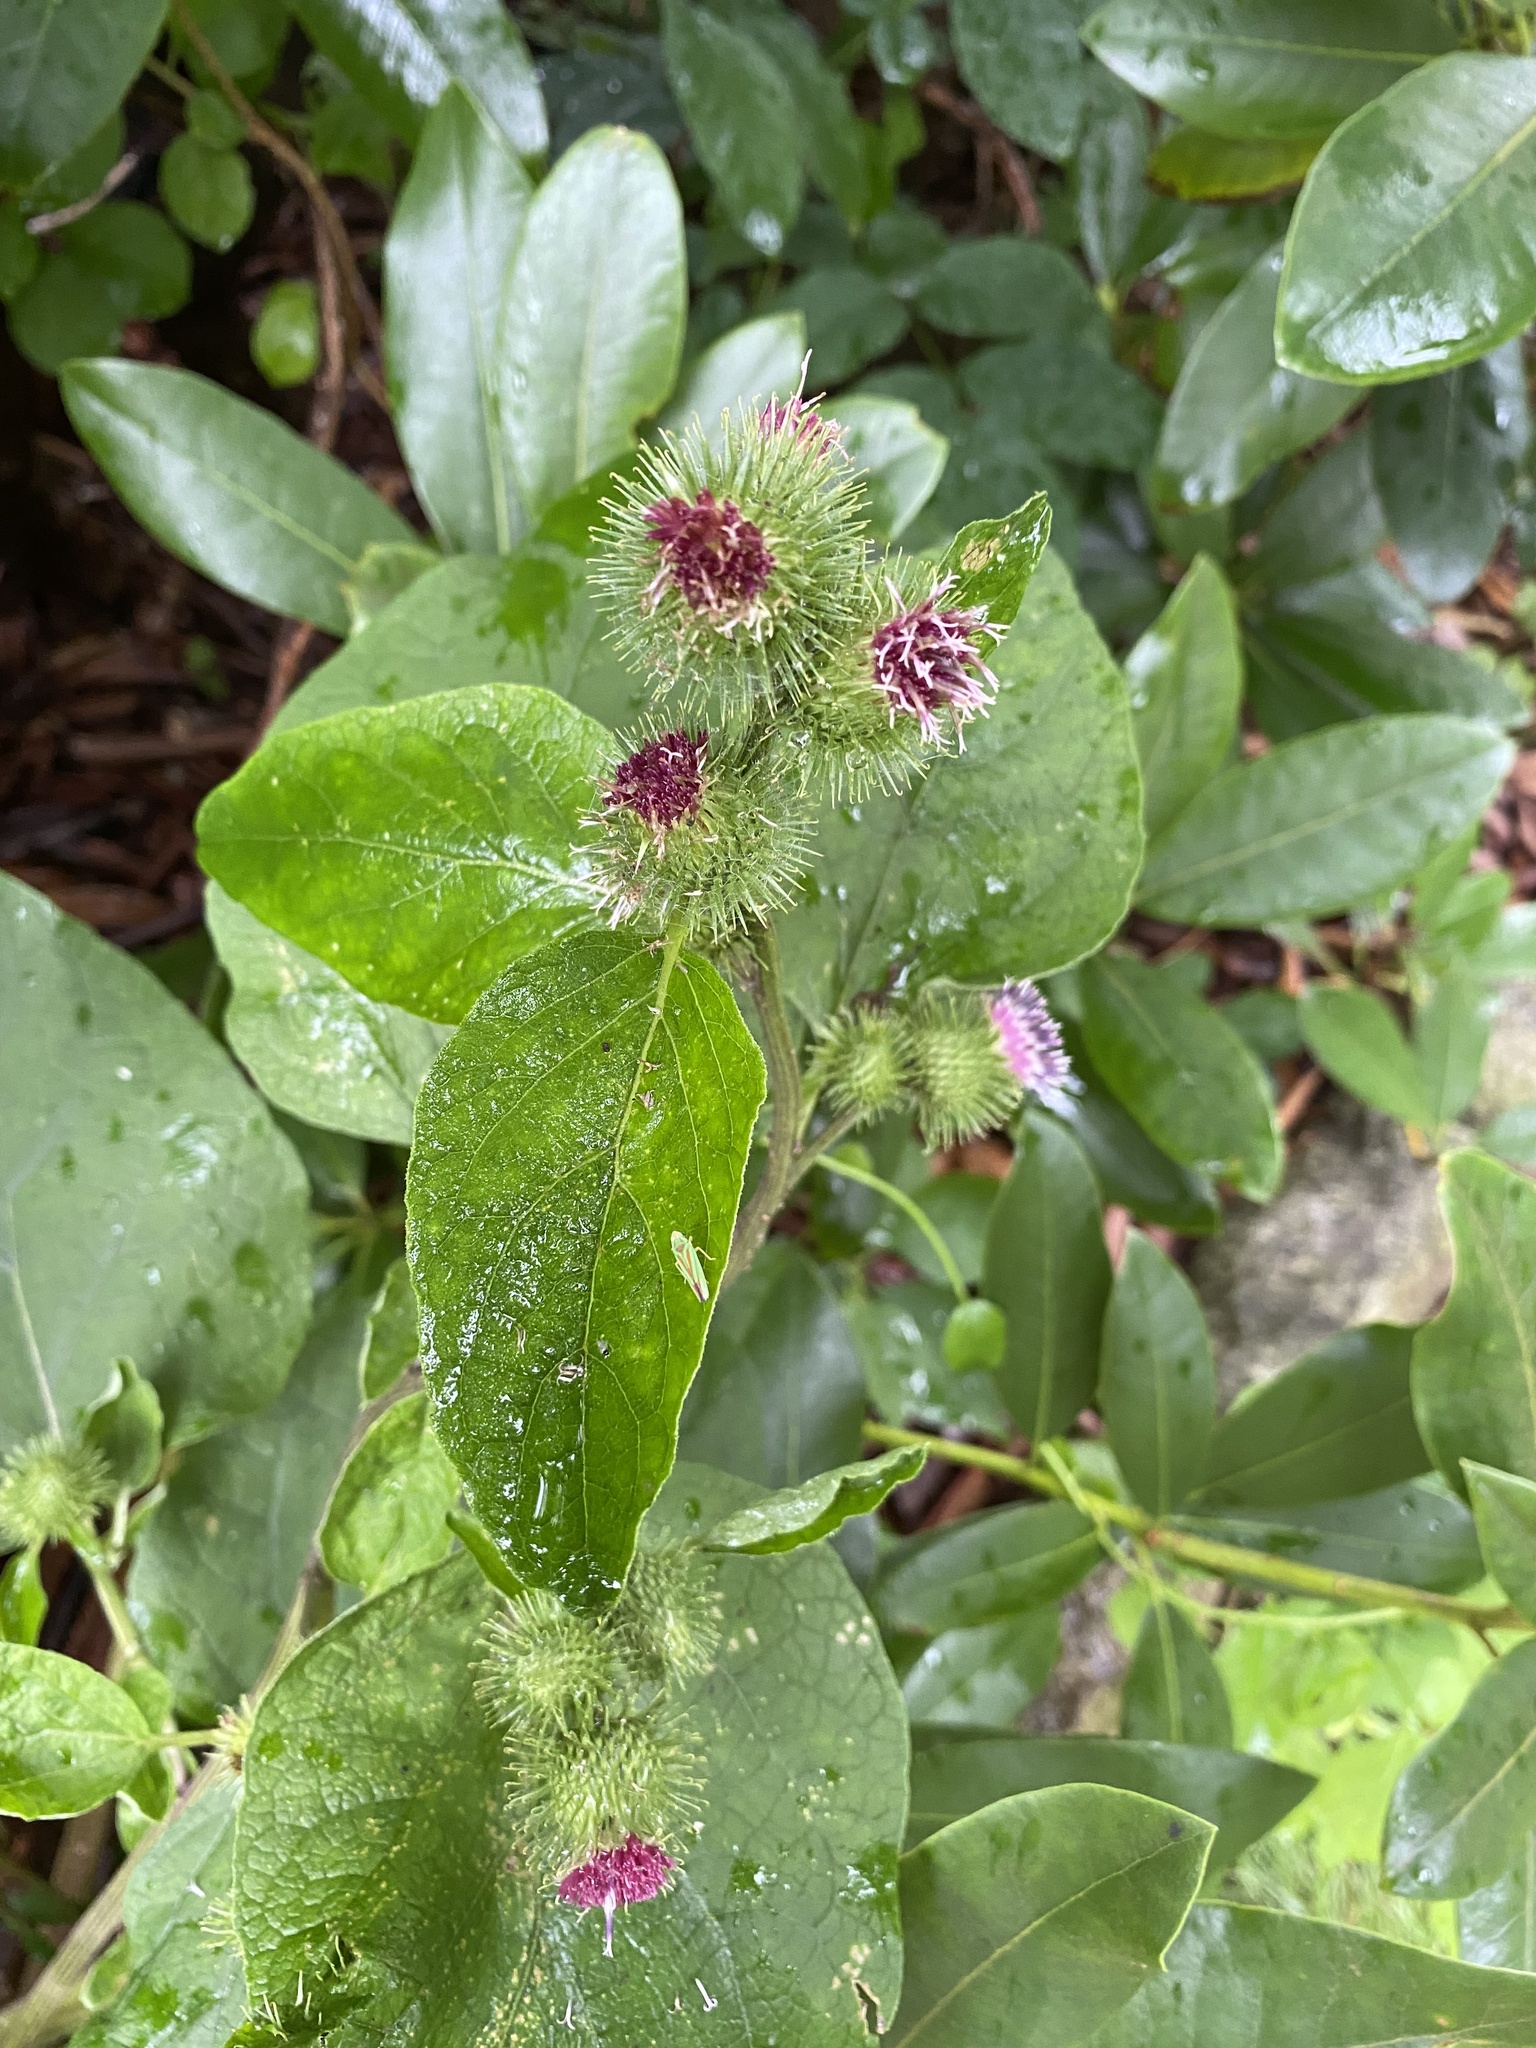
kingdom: Plantae
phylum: Tracheophyta
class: Magnoliopsida
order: Asterales
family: Asteraceae
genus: Arctium
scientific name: Arctium minus
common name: Lesser burdock
